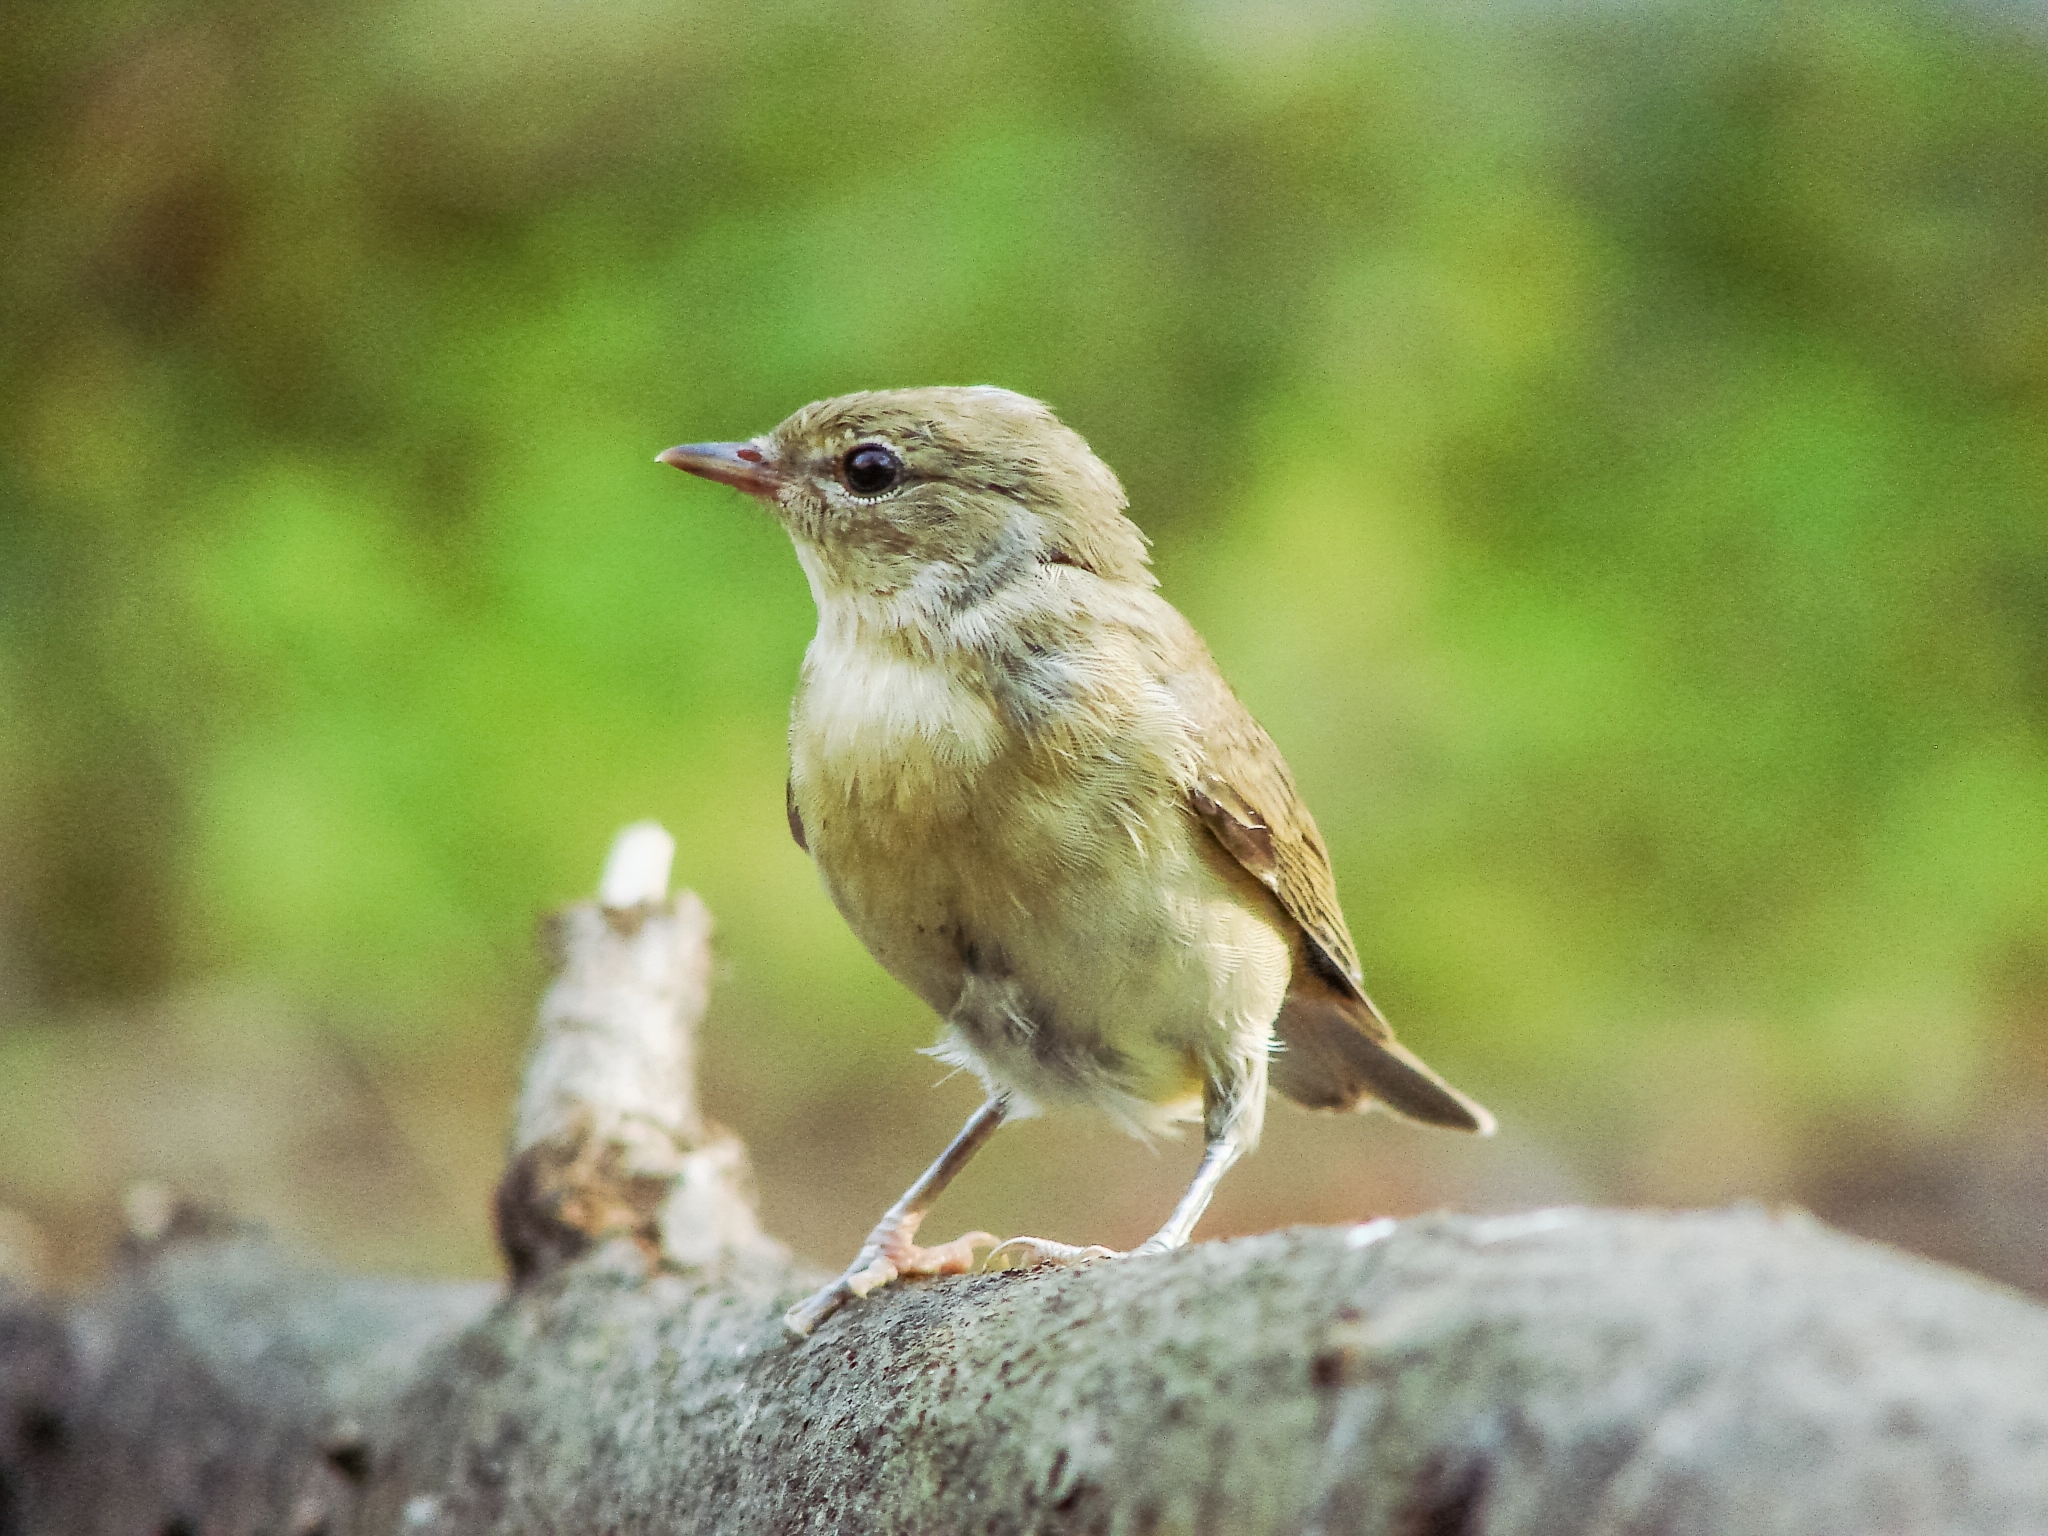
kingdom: Animalia
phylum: Chordata
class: Aves
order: Passeriformes
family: Phylloscopidae
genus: Phylloscopus
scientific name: Phylloscopus trochilus
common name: Willow warbler
